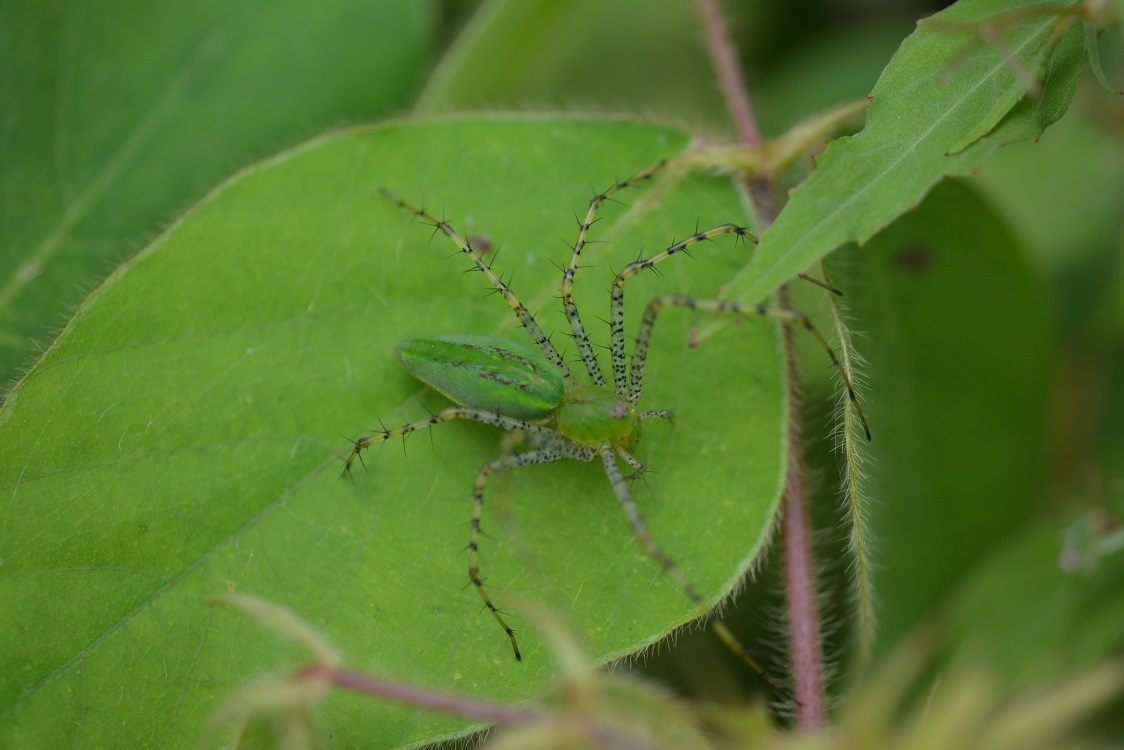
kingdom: Animalia
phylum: Arthropoda
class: Arachnida
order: Araneae
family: Oxyopidae
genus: Peucetia
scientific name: Peucetia viridans
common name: Lynx spiders
